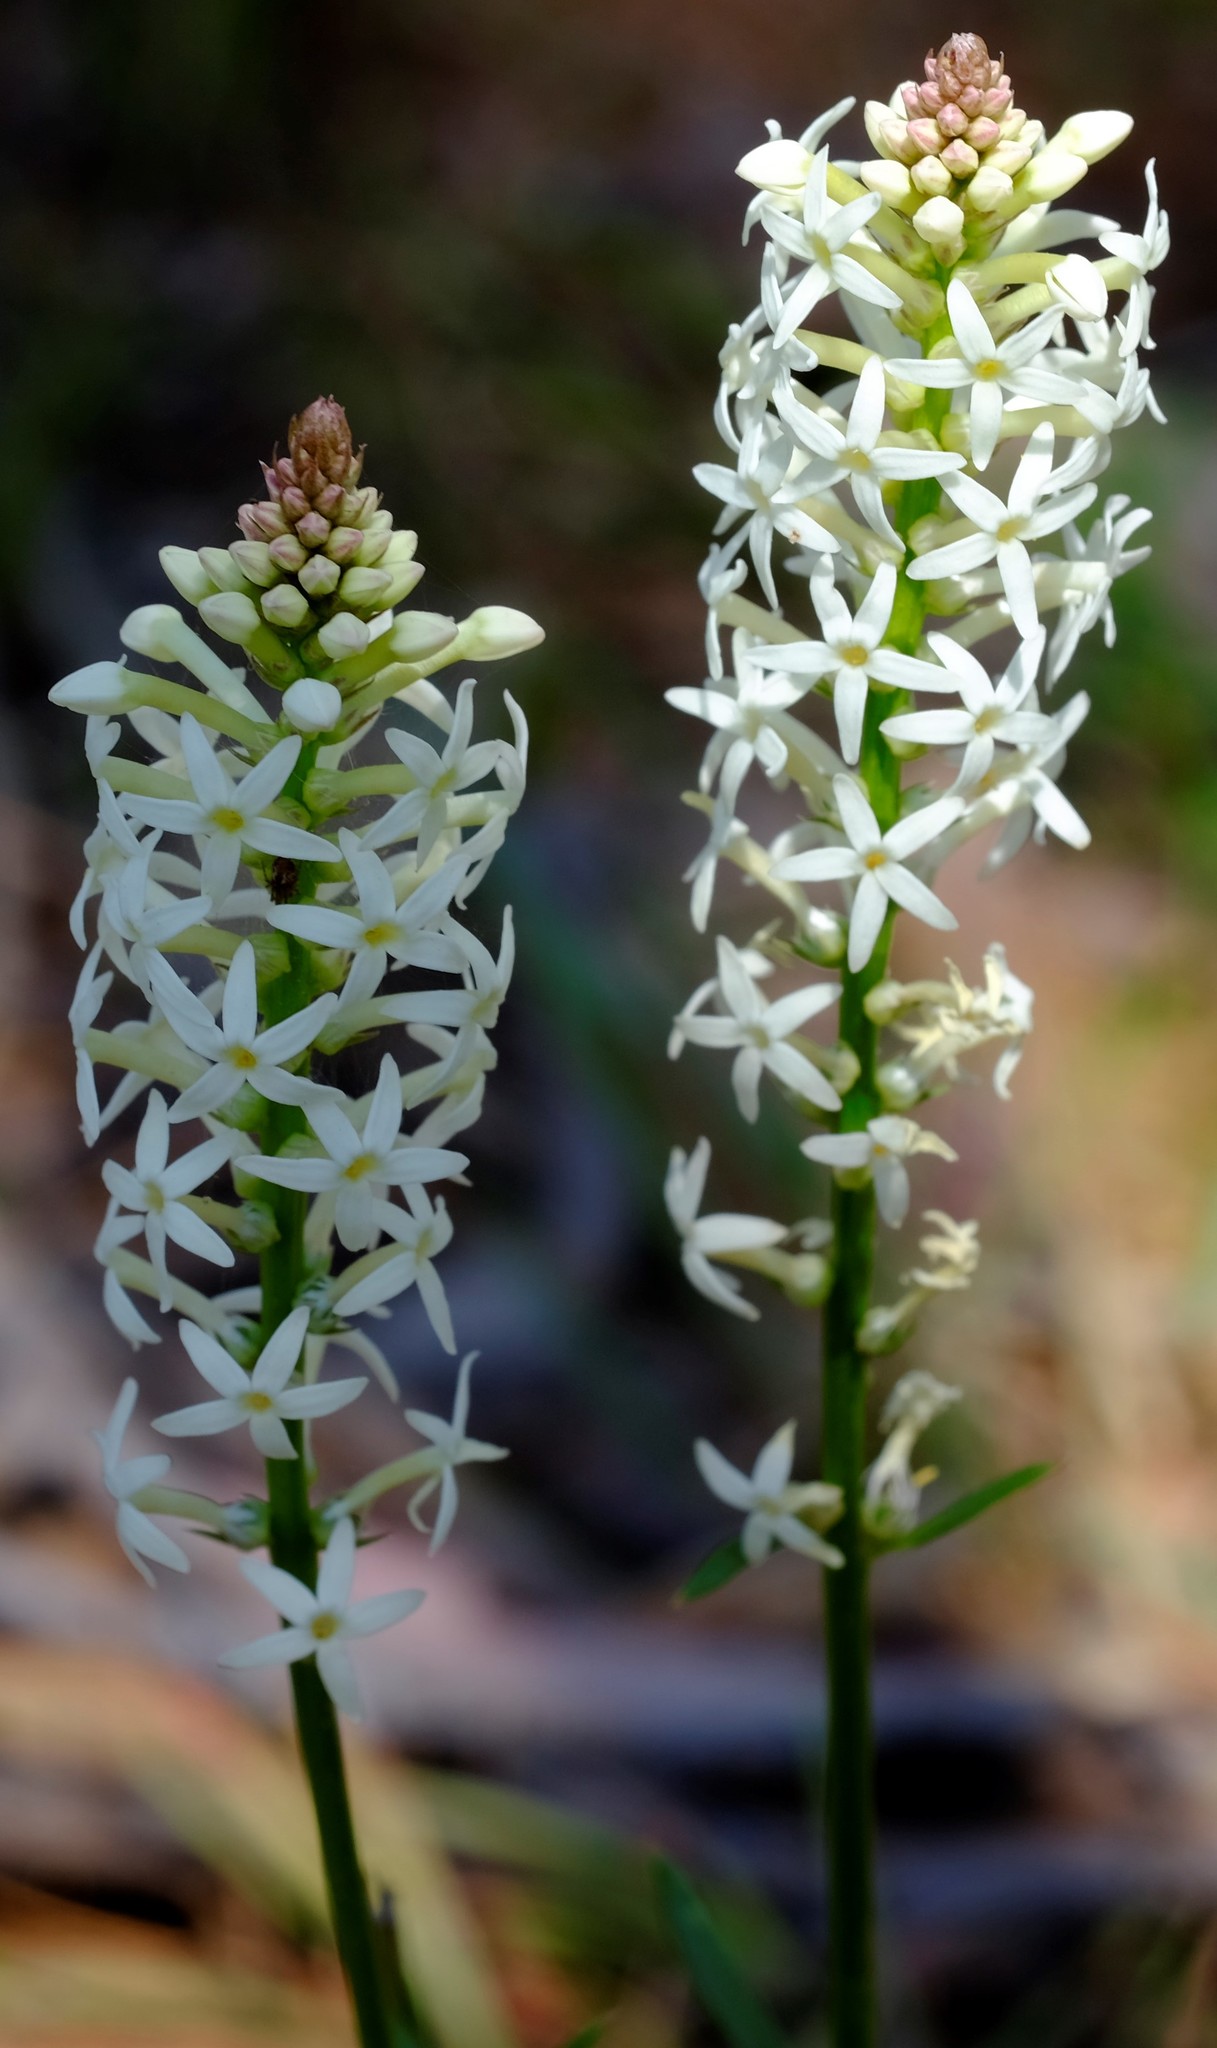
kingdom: Plantae
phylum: Tracheophyta
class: Magnoliopsida
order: Celastrales
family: Celastraceae
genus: Stackhousia
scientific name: Stackhousia monogyna
